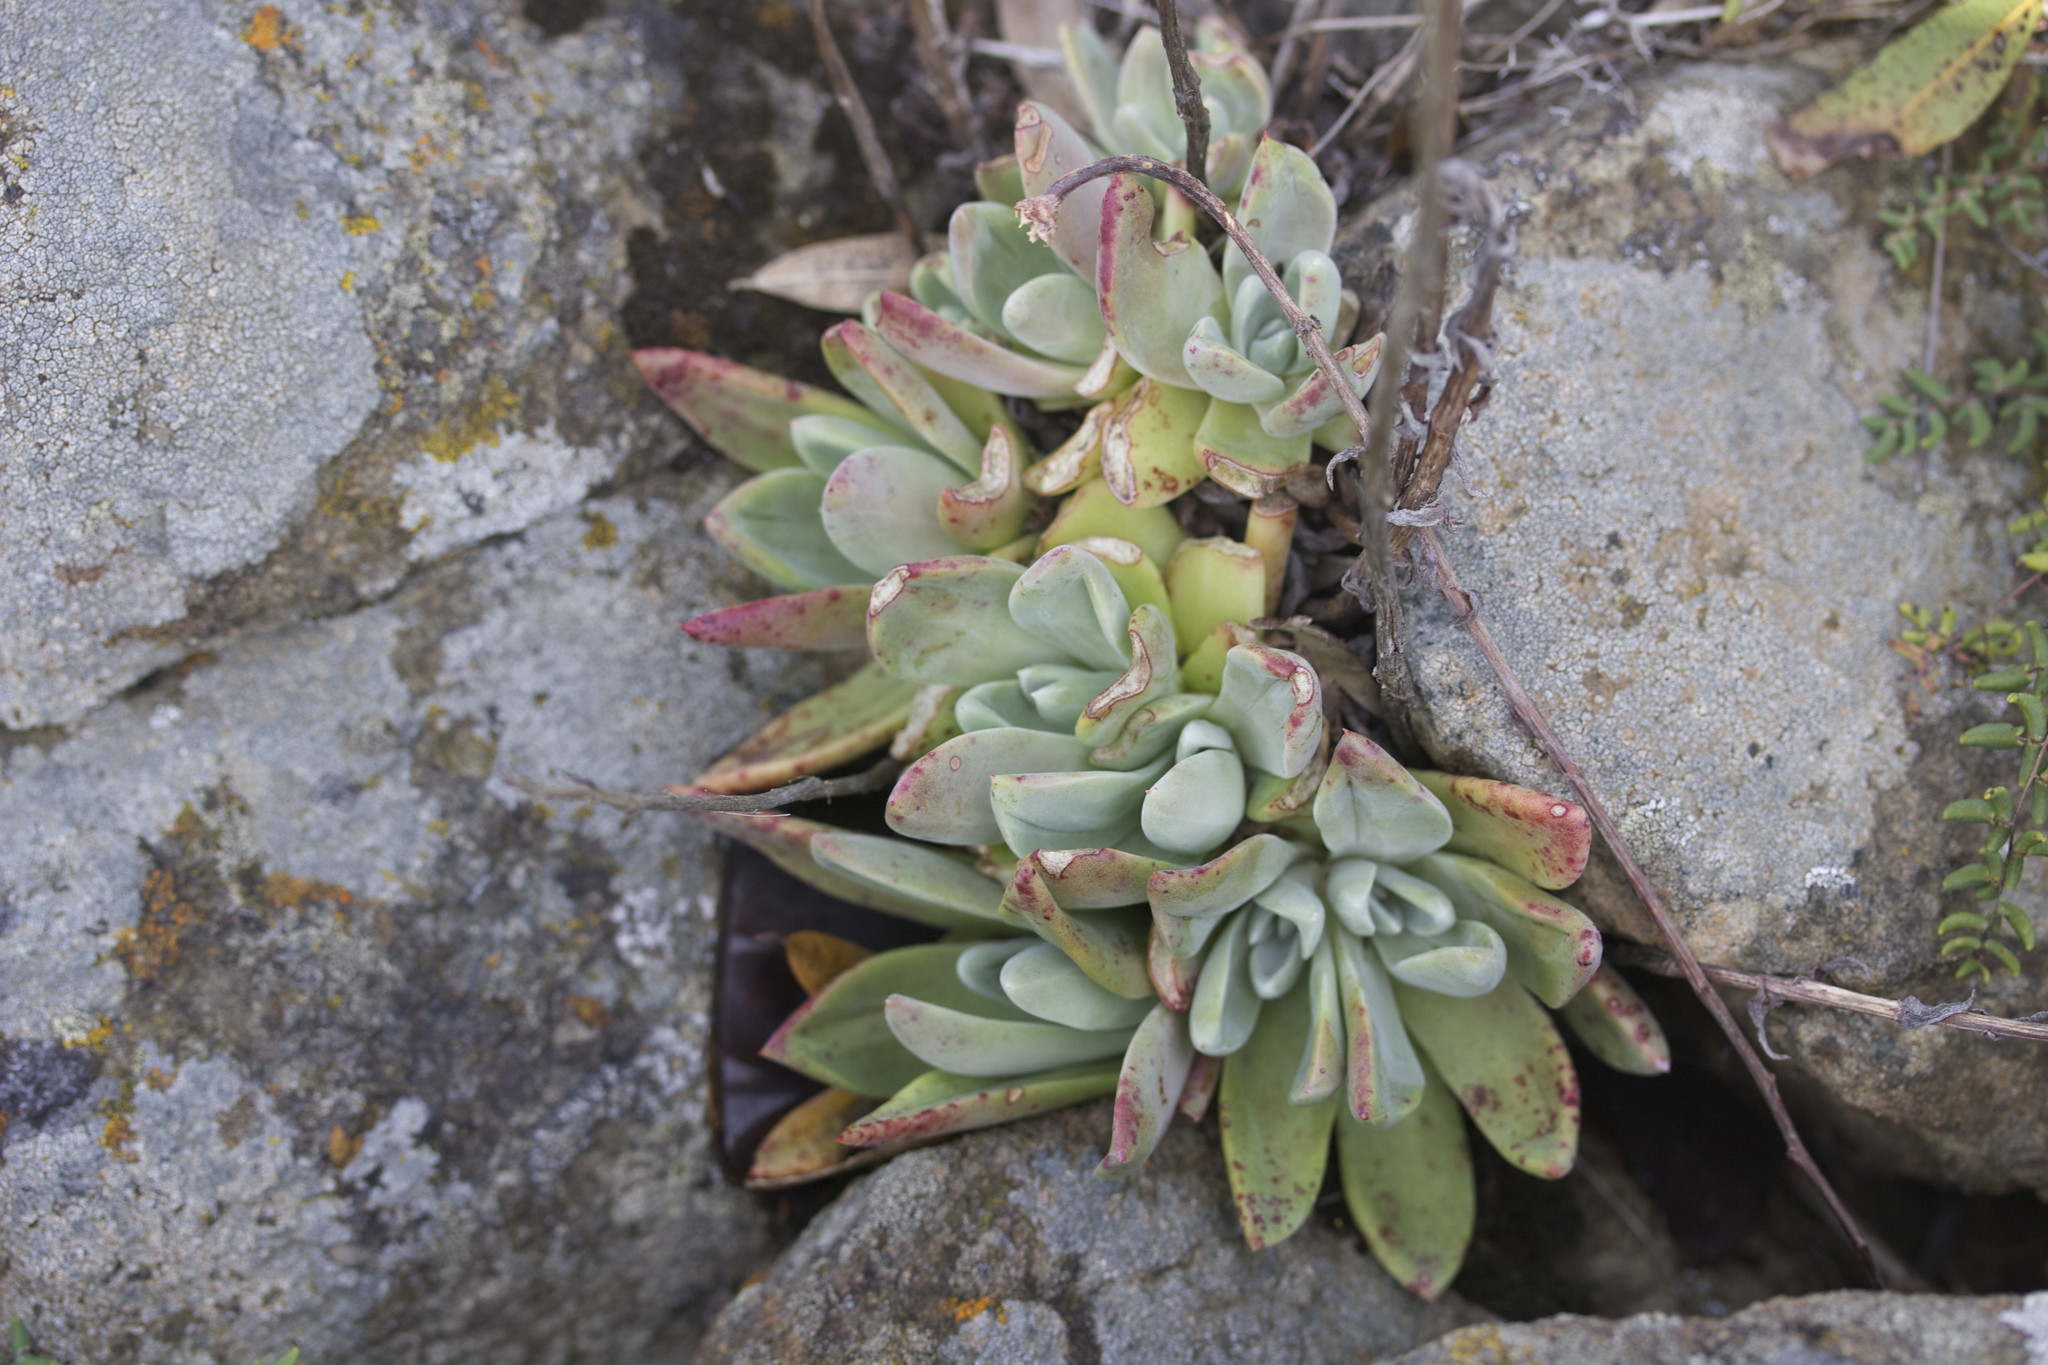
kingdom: Plantae
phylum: Tracheophyta
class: Magnoliopsida
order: Saxifragales
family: Crassulaceae
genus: Dudleya
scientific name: Dudleya farinosa
